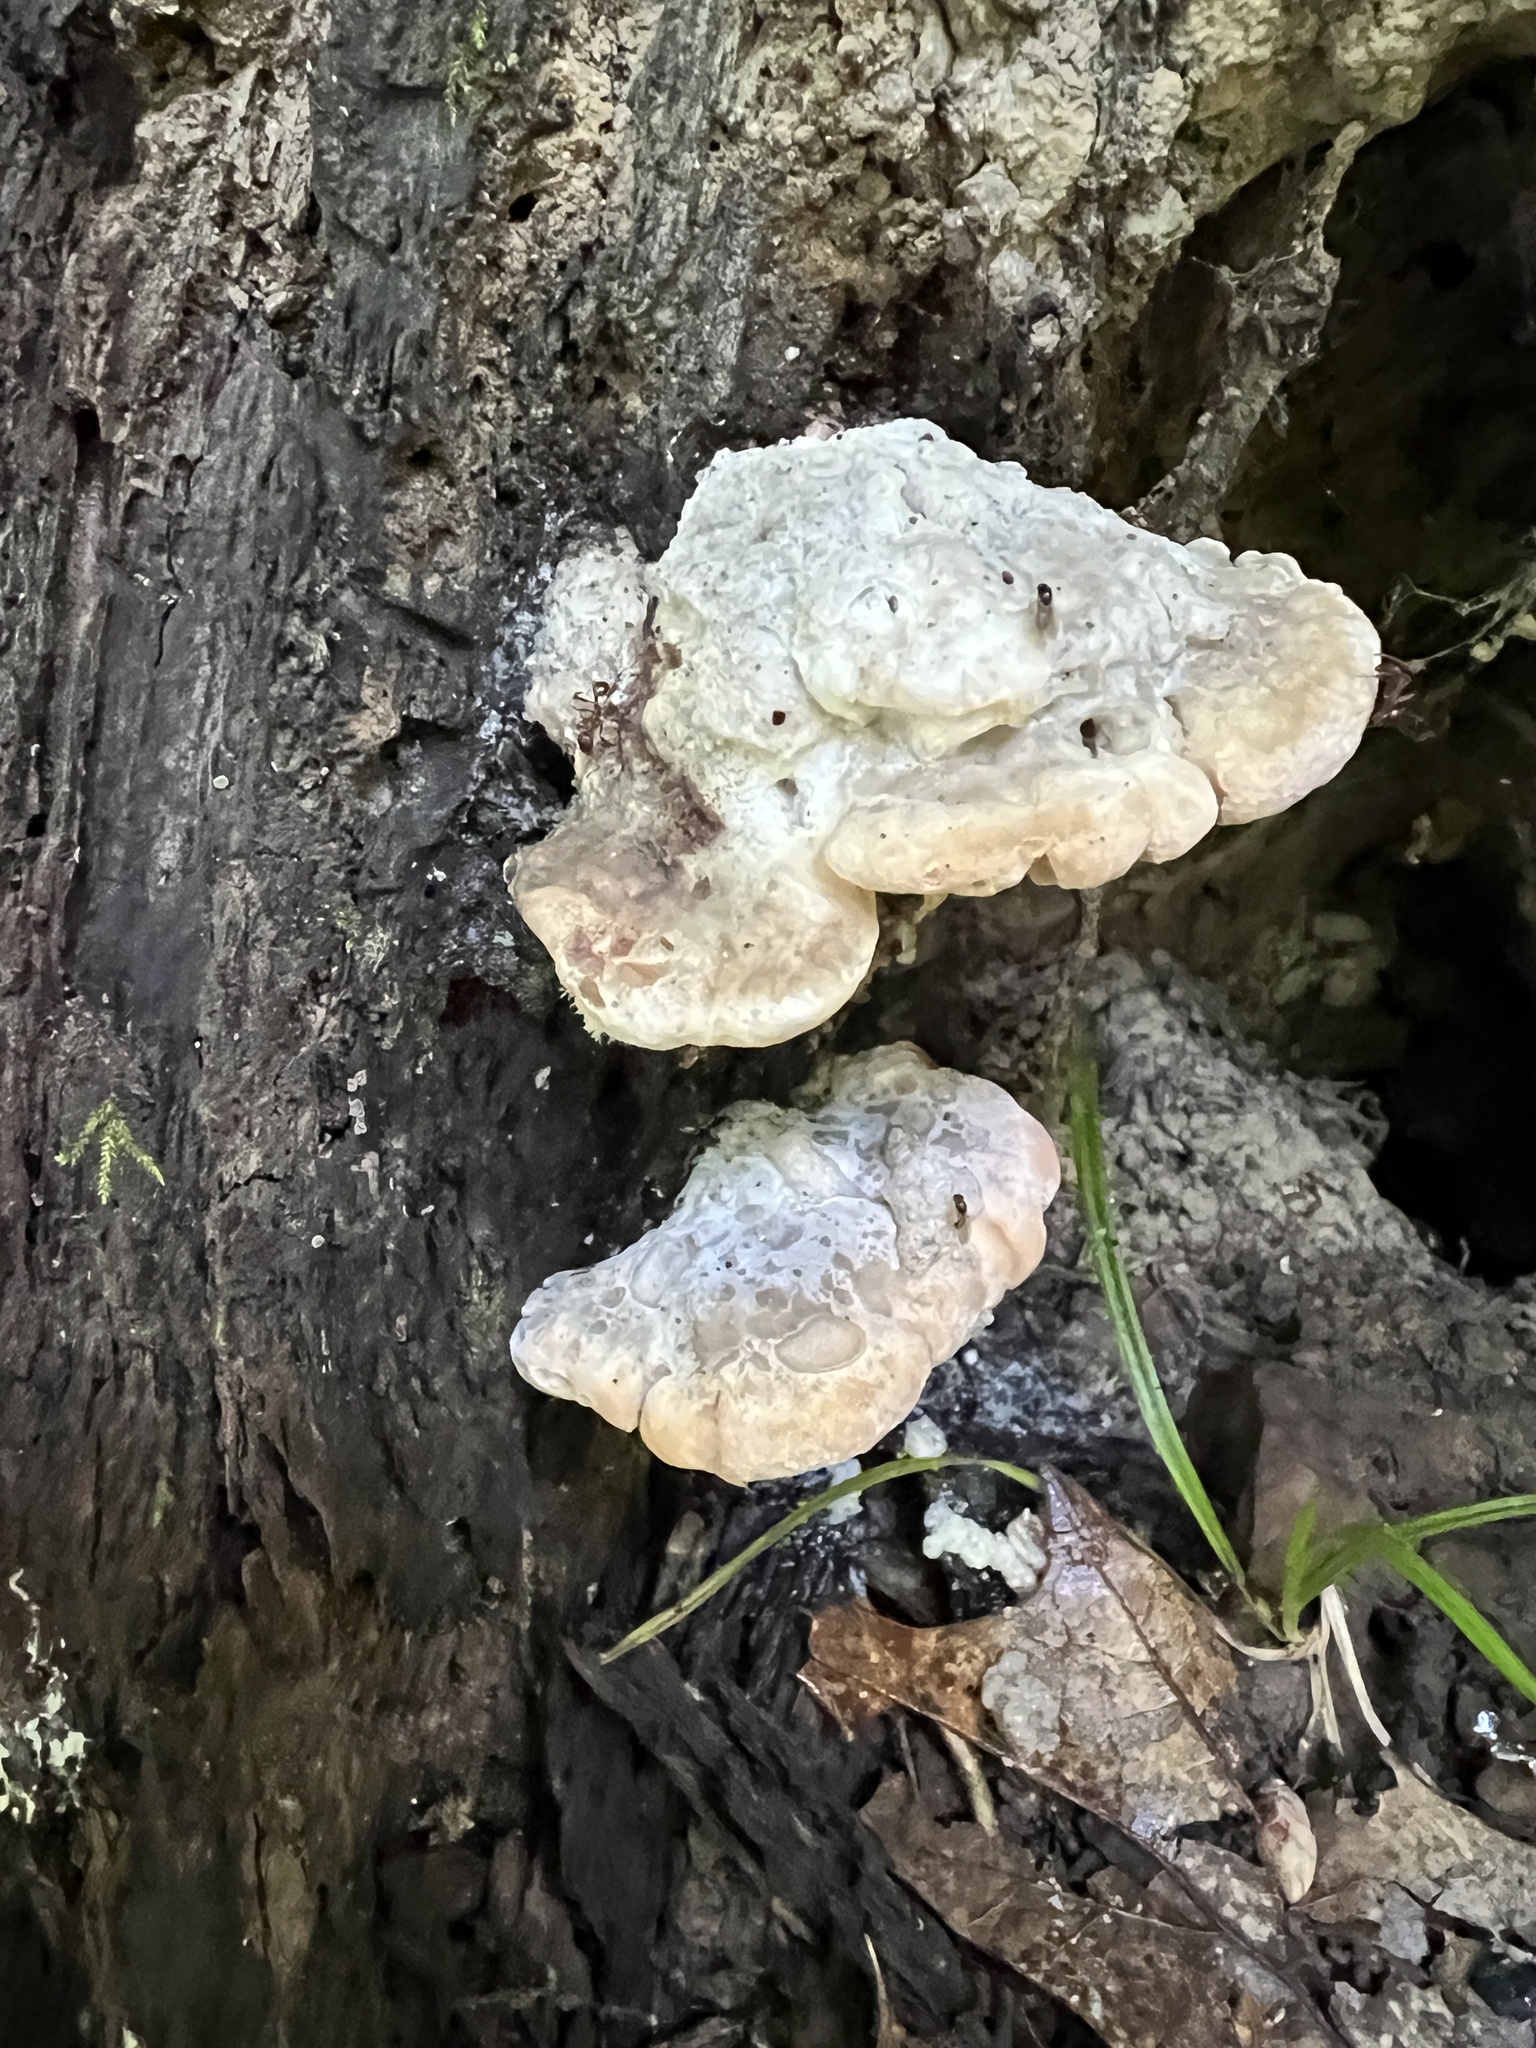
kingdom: Fungi
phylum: Basidiomycota
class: Agaricomycetes
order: Polyporales
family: Fomitopsidaceae
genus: Niveoporofomes
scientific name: Niveoporofomes spraguei
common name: Green cheese polypore
